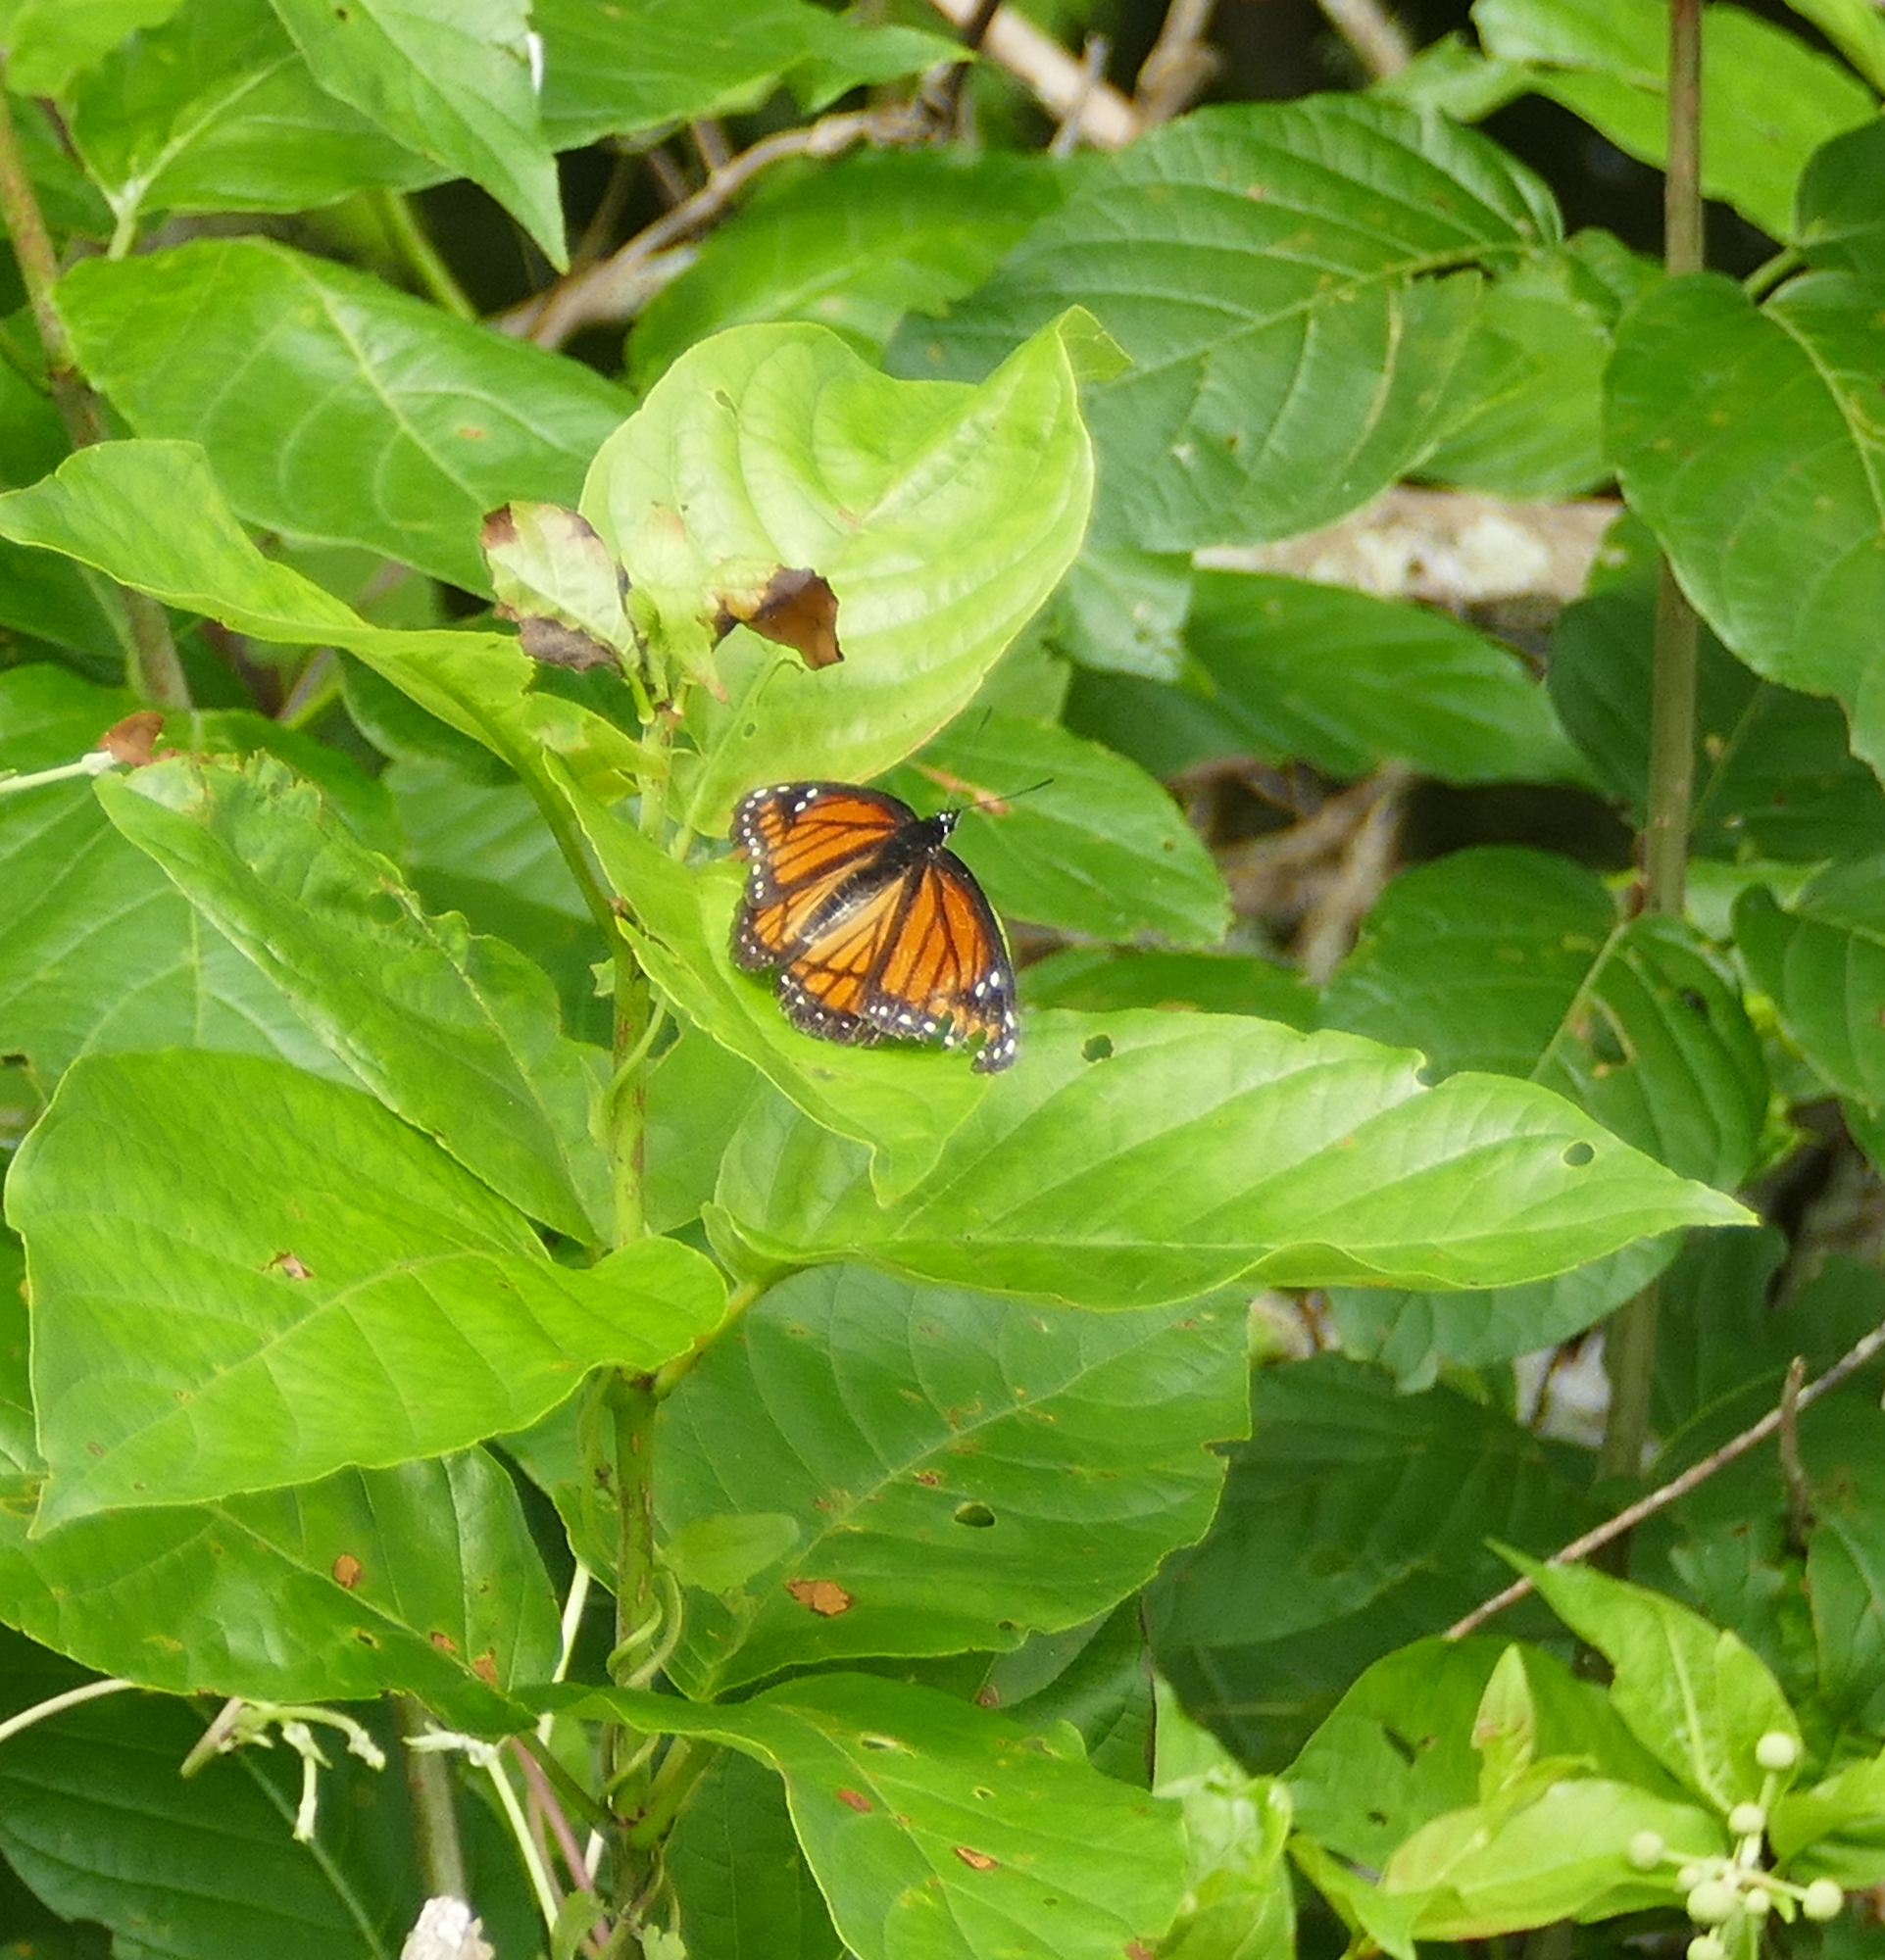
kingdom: Animalia
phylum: Arthropoda
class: Insecta
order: Lepidoptera
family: Nymphalidae
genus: Limenitis
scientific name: Limenitis archippus
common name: Viceroy
